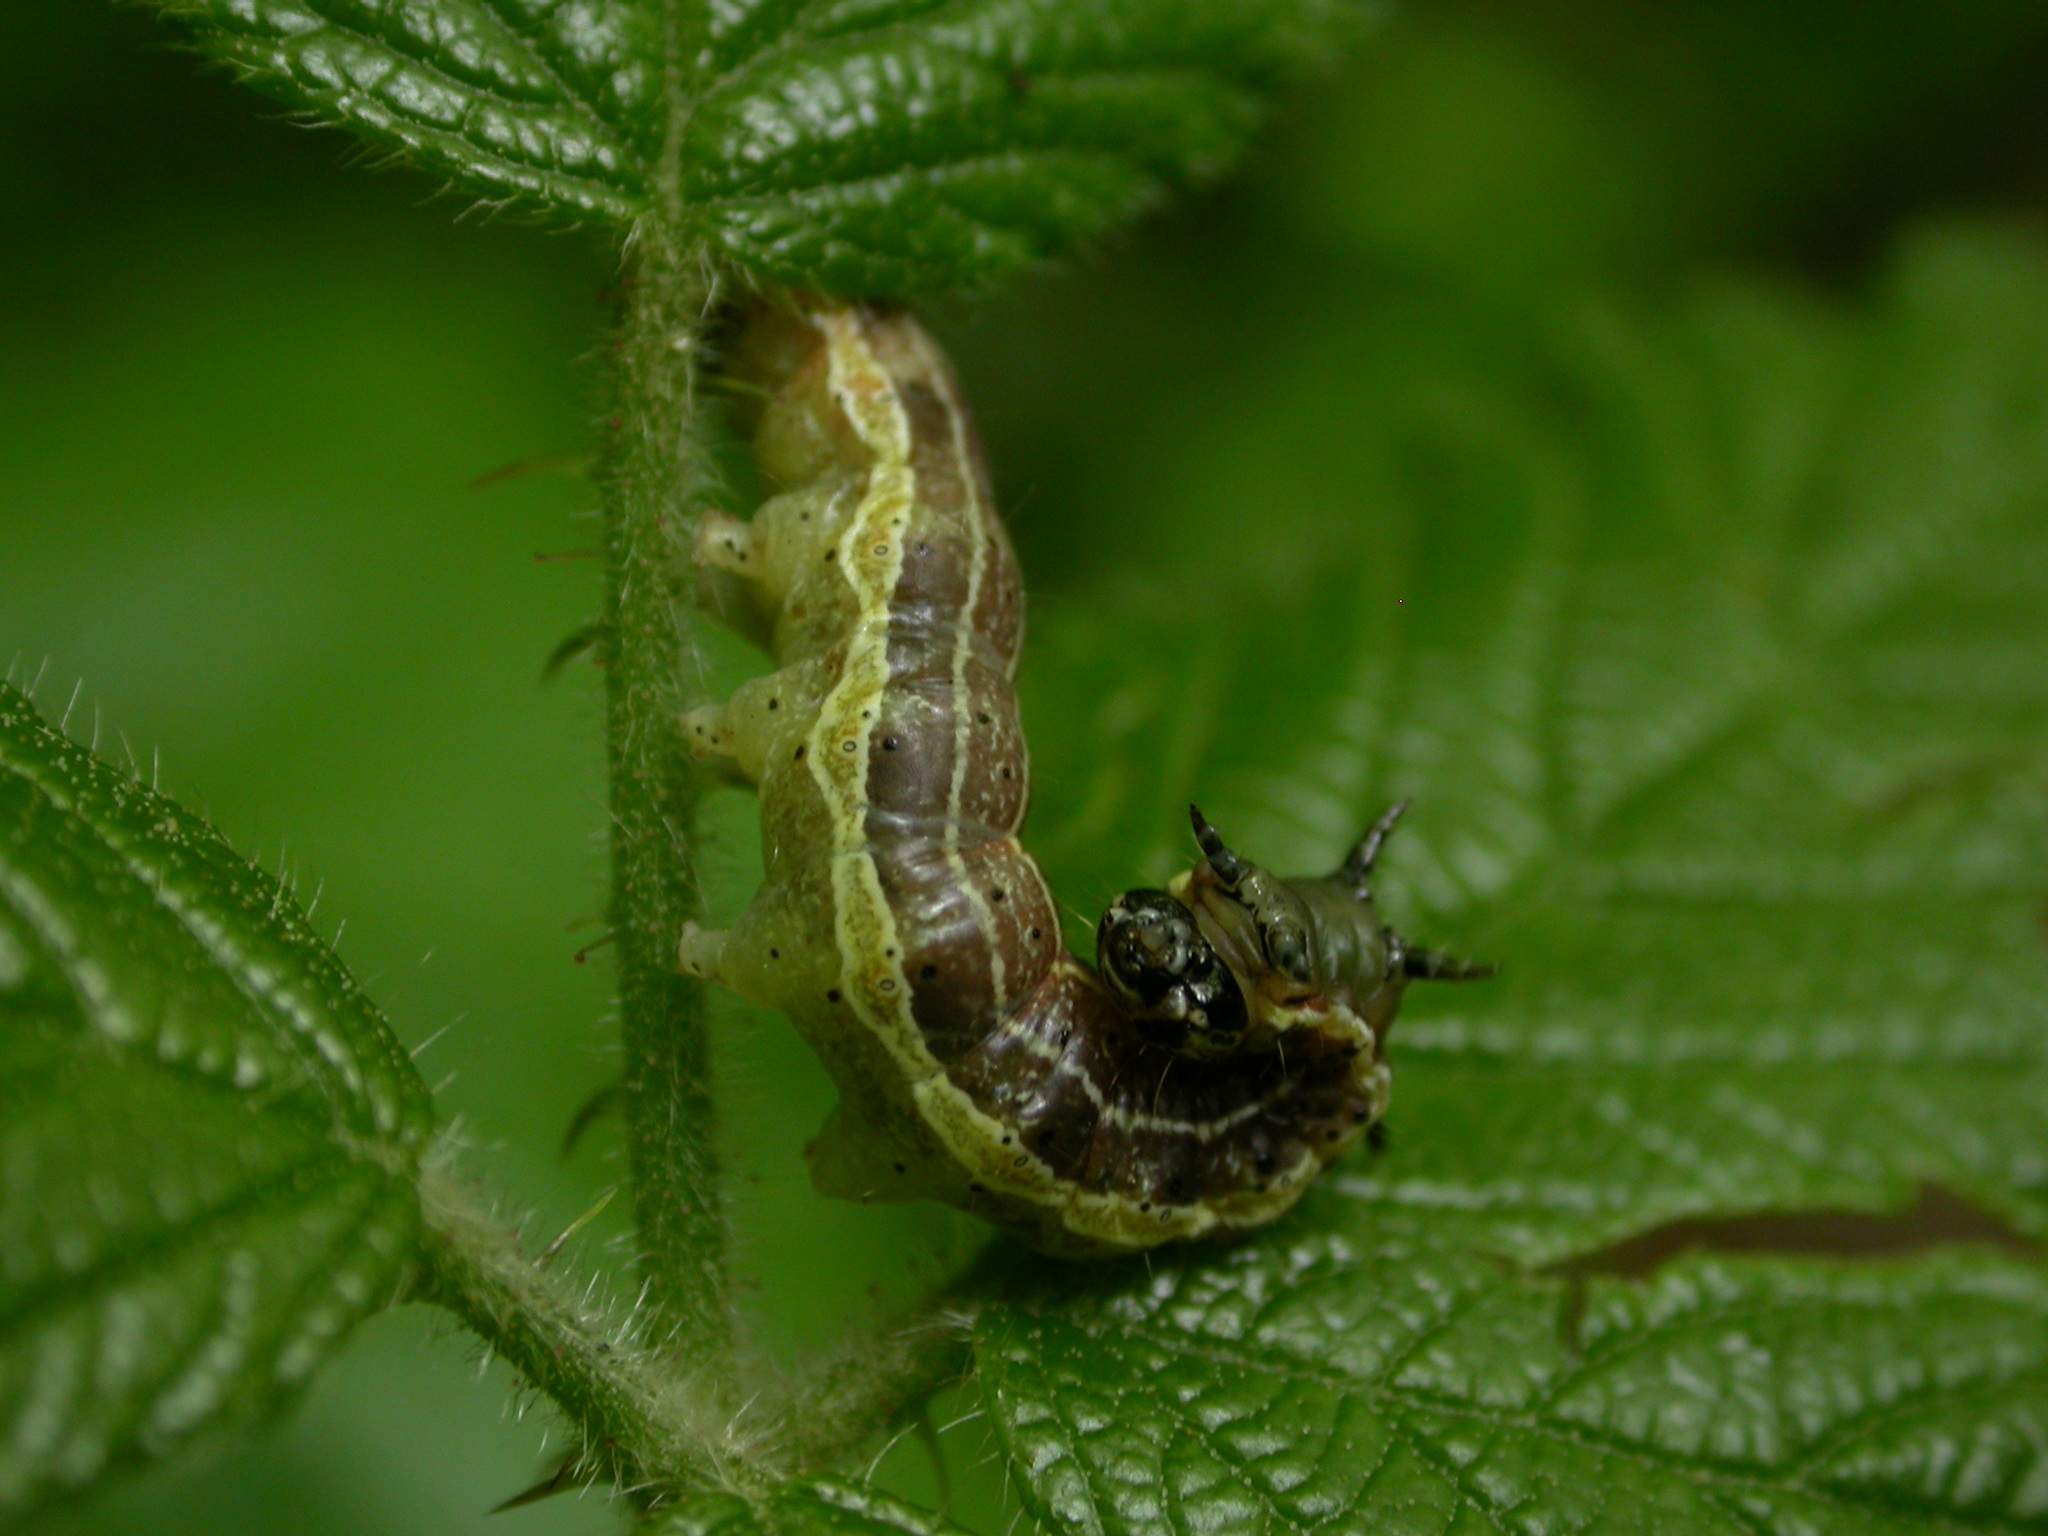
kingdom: Animalia
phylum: Arthropoda
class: Insecta
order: Lepidoptera
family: Noctuidae
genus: Orthosia
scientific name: Orthosia cruda
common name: Small quaker
